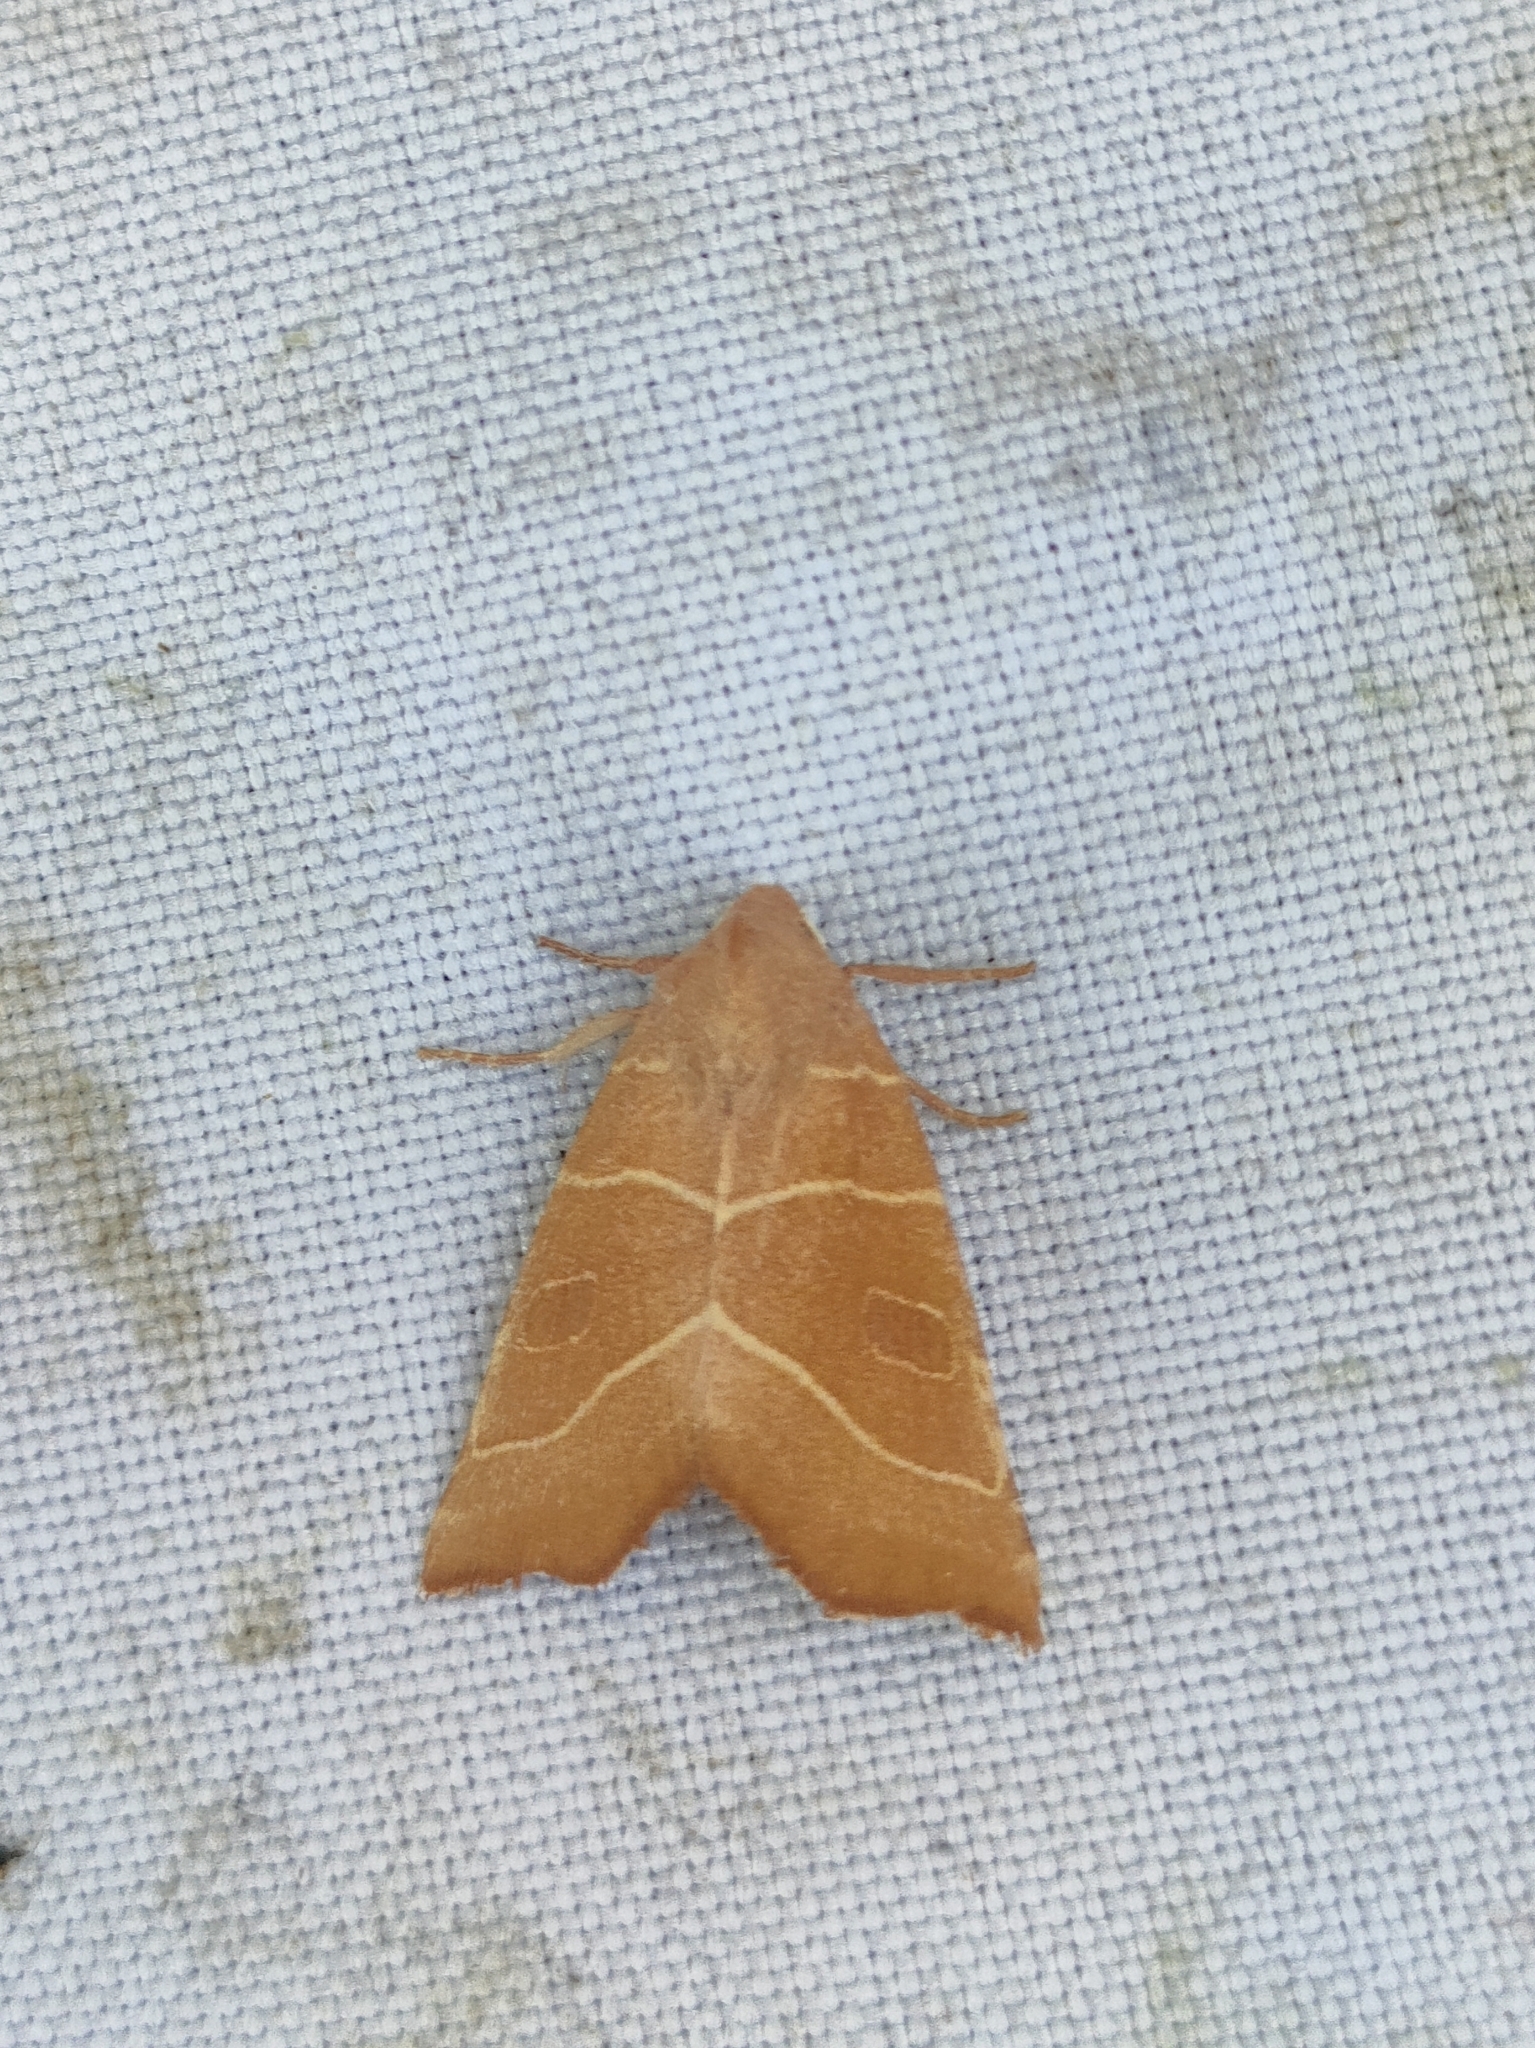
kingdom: Animalia
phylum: Arthropoda
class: Insecta
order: Lepidoptera
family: Noctuidae
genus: Atethmia
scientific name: Atethmia algirica
